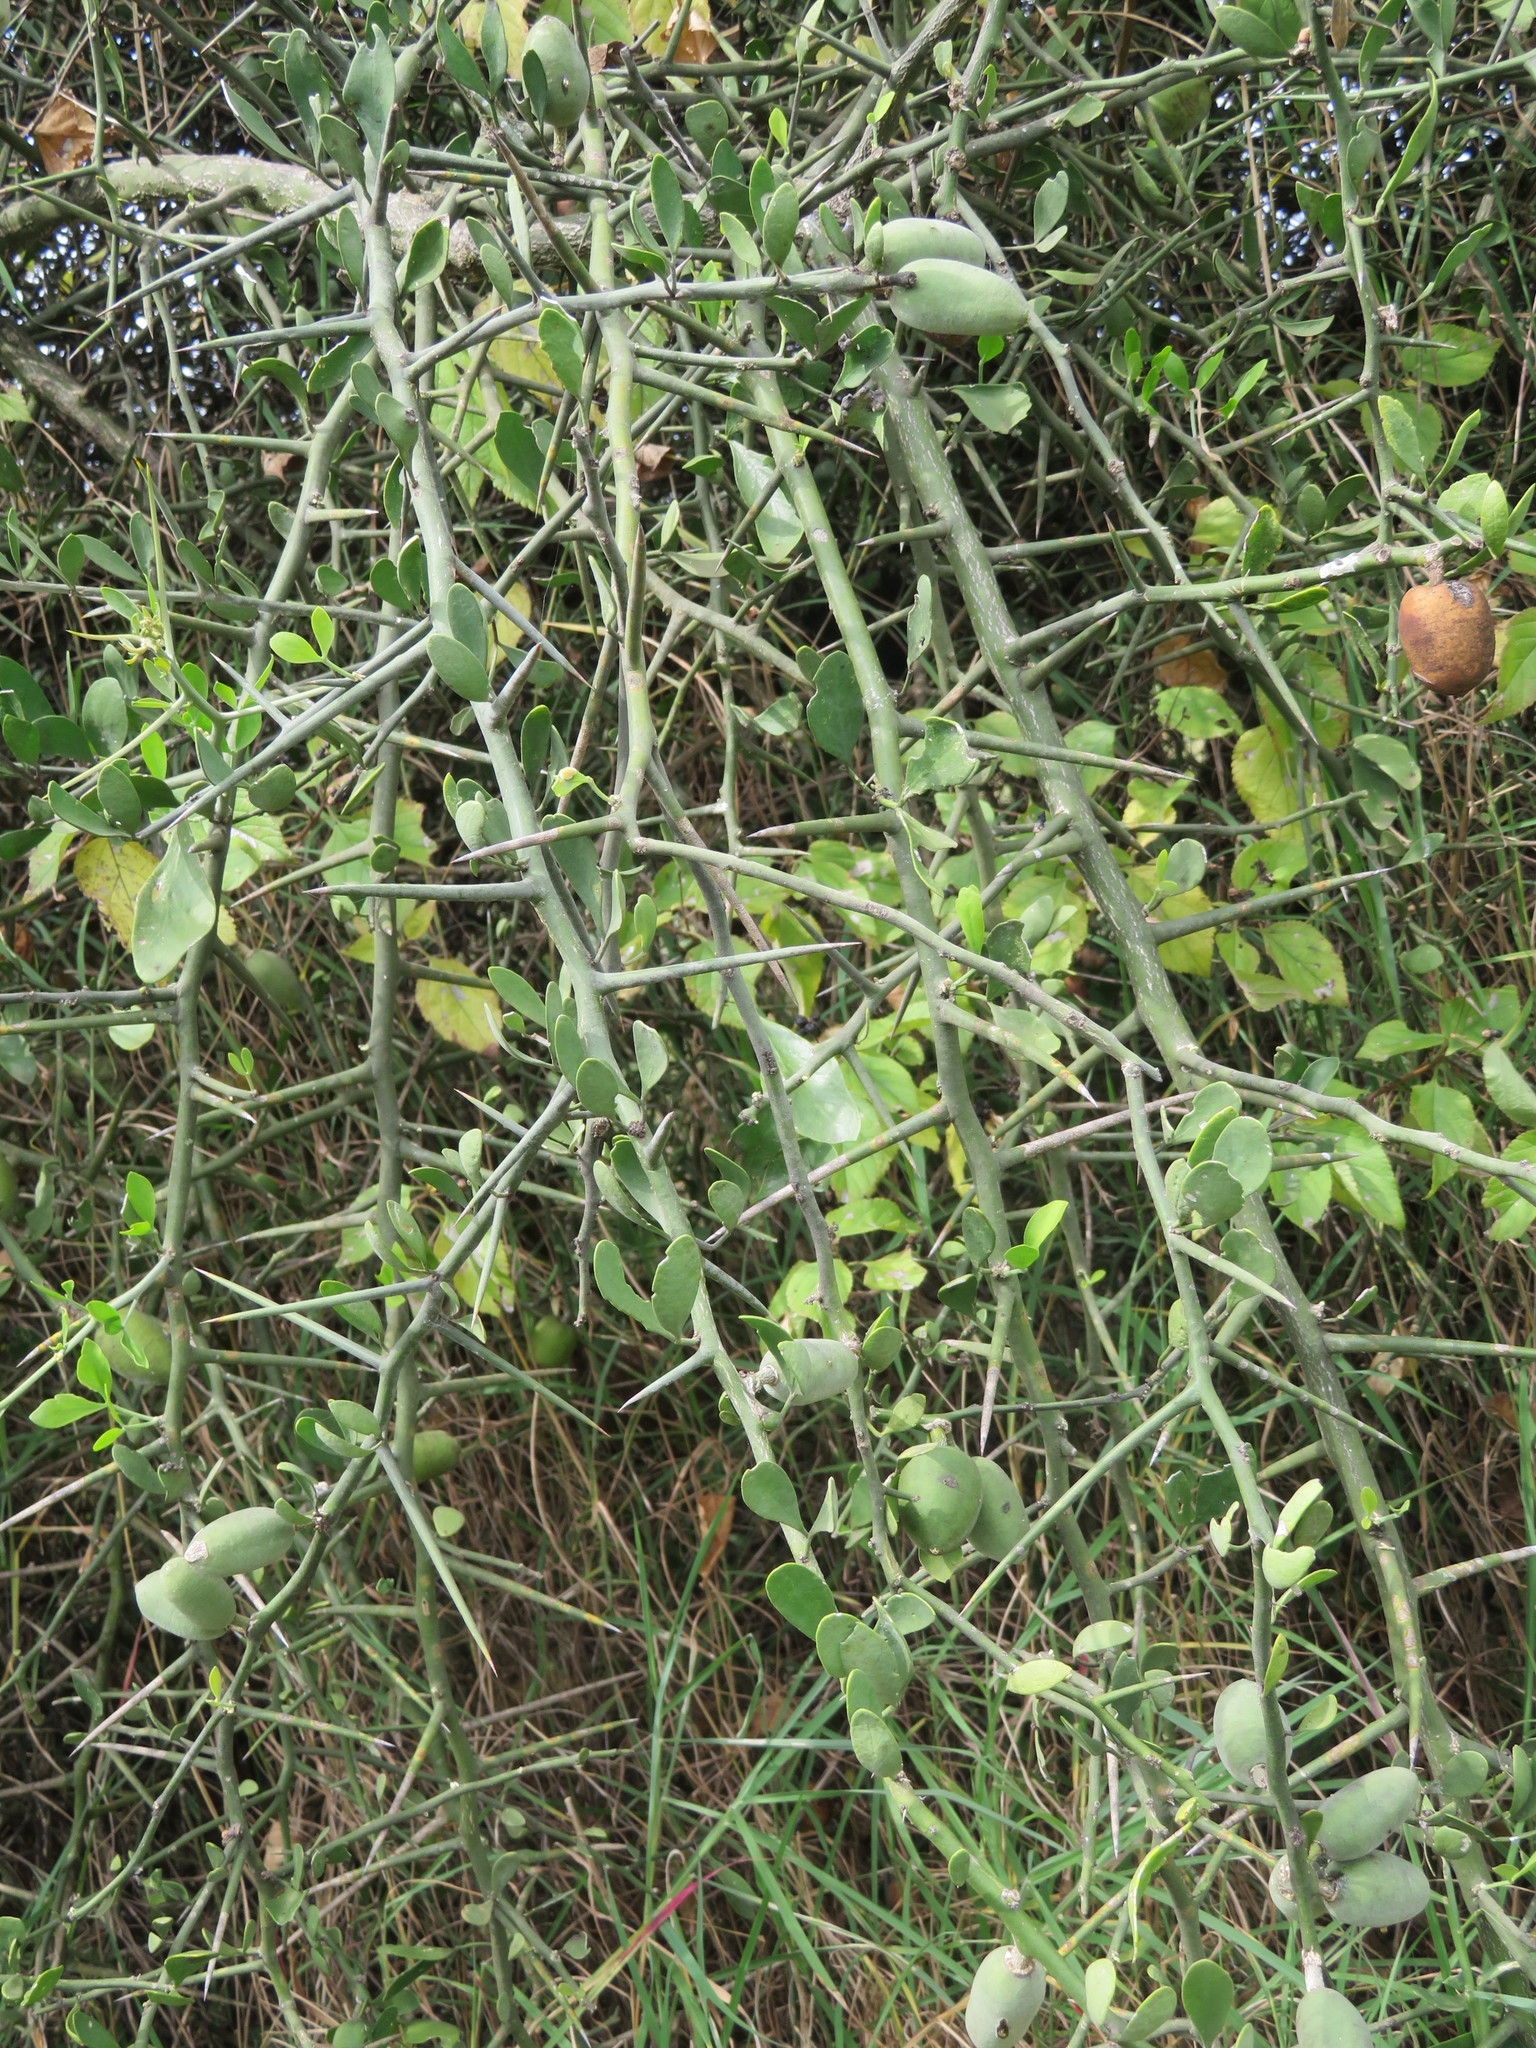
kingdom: Plantae
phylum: Tracheophyta
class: Magnoliopsida
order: Zygophyllales
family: Zygophyllaceae
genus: Balanites
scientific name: Balanites aegyptiaca
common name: Balanites
